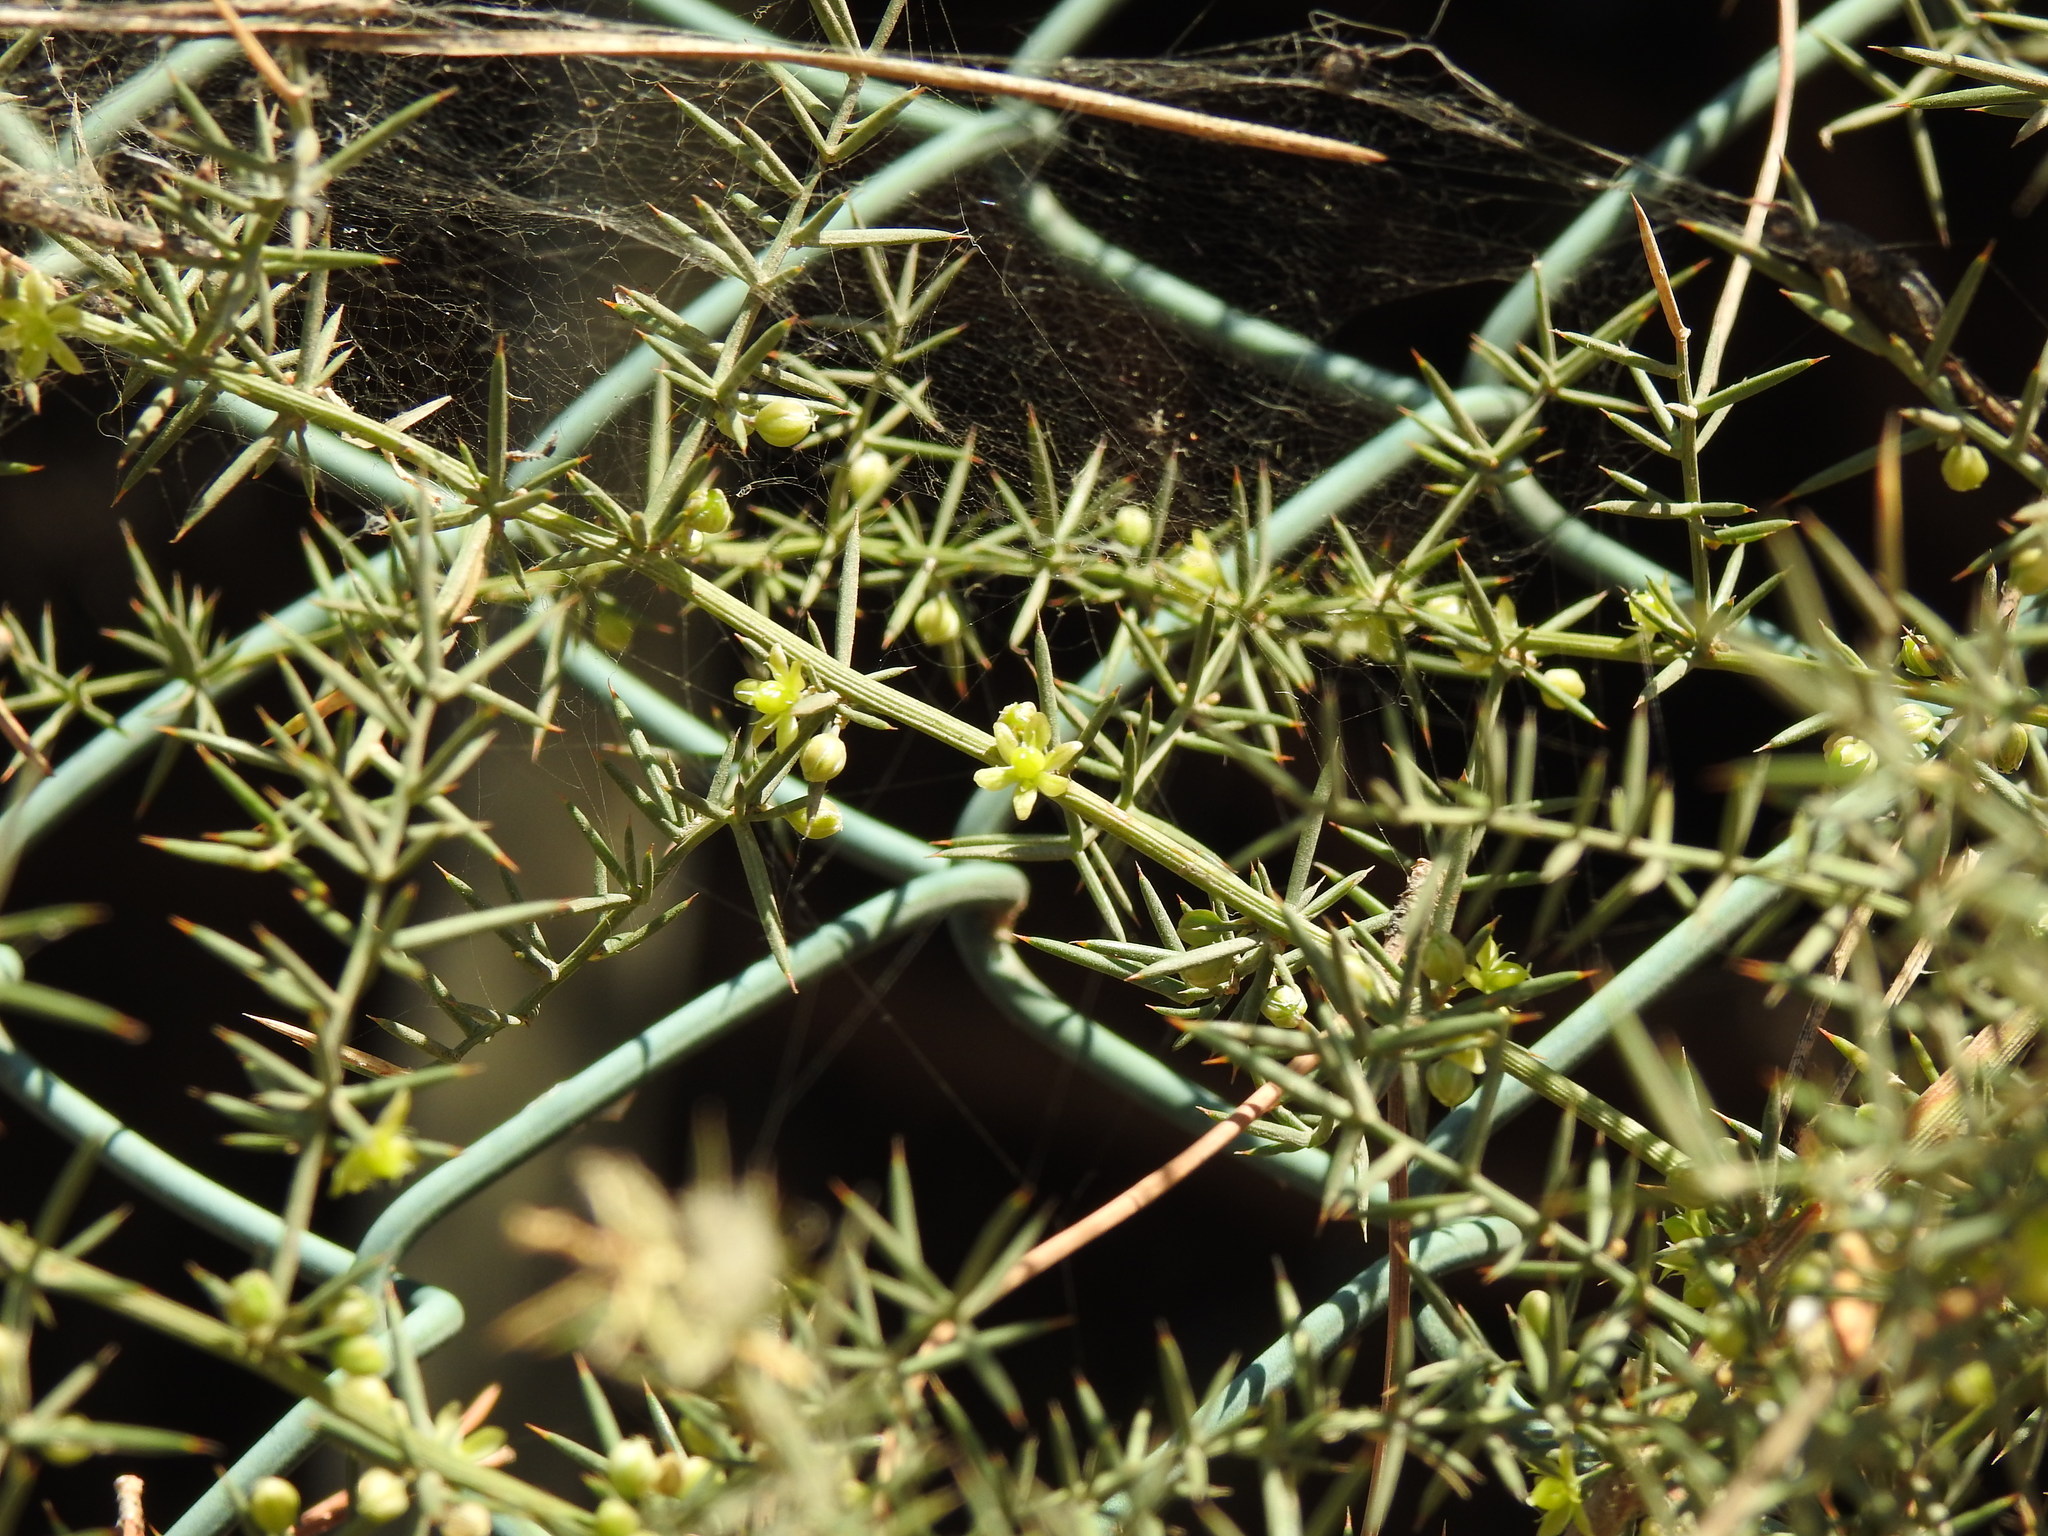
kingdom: Plantae
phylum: Tracheophyta
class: Liliopsida
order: Asparagales
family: Asparagaceae
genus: Asparagus
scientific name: Asparagus aphyllus
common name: Mediterranean asparagus
